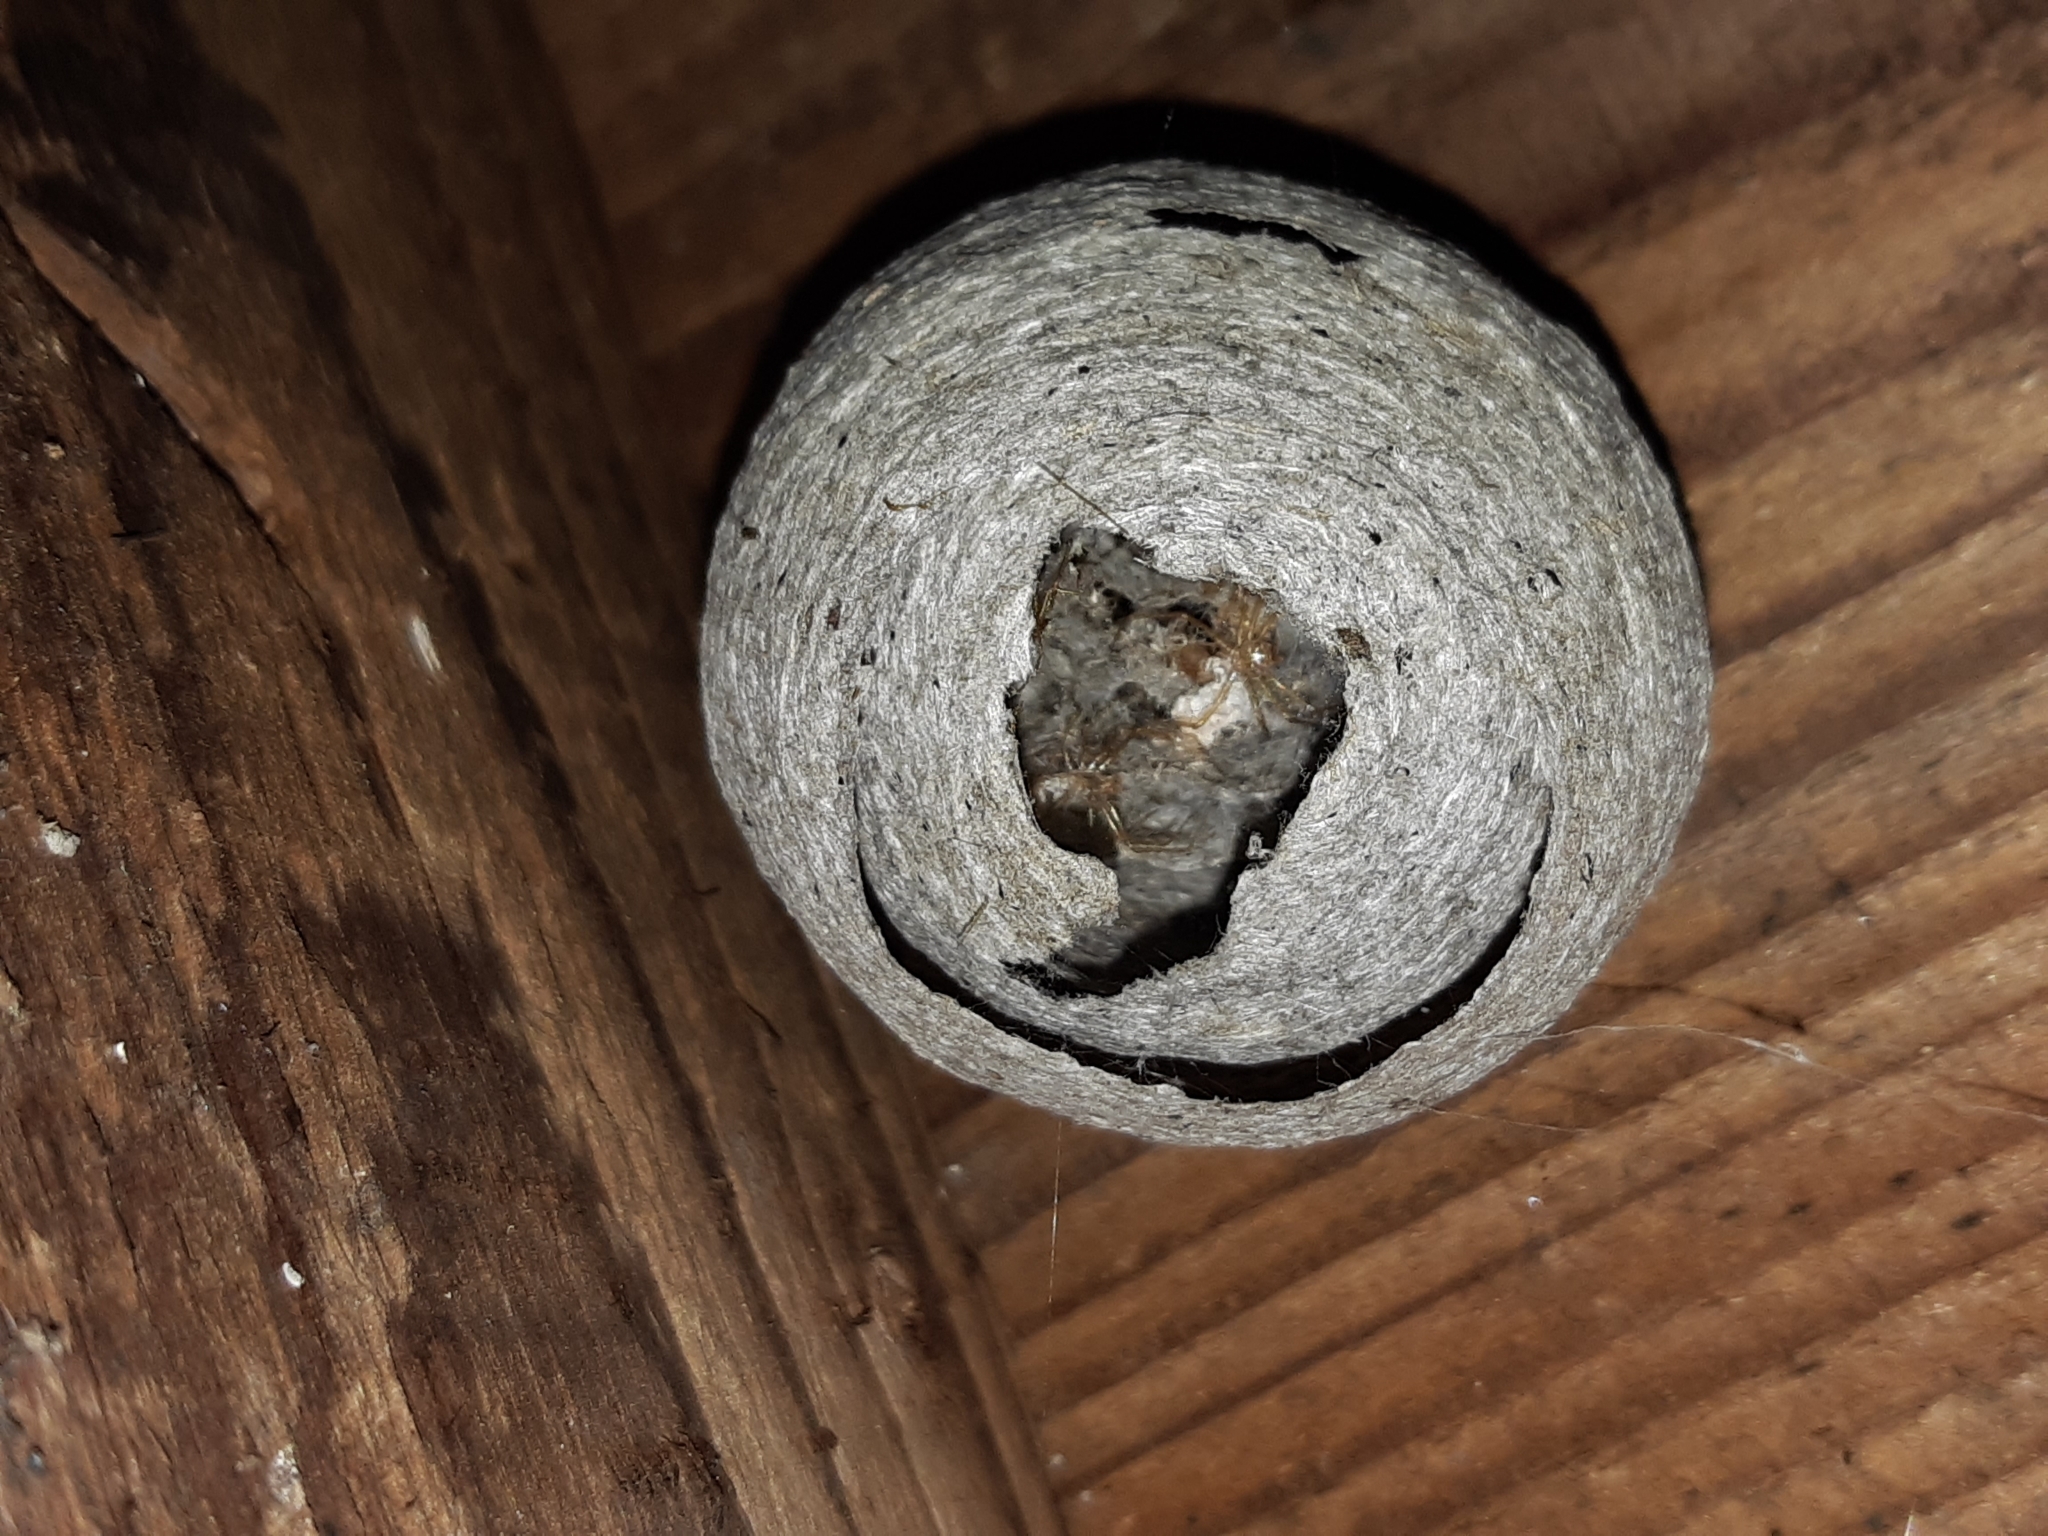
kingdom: Animalia
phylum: Arthropoda
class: Insecta
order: Hymenoptera
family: Vespidae
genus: Dolichovespula
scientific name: Dolichovespula saxonica
